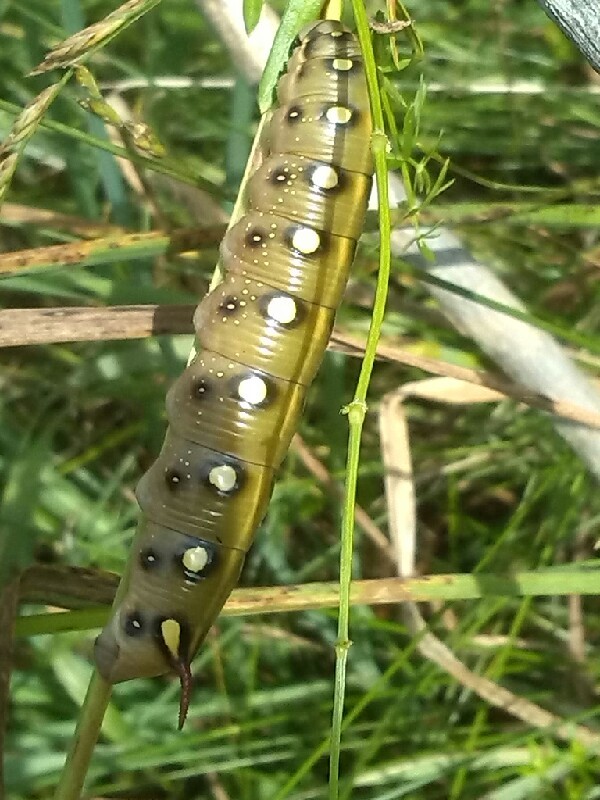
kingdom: Animalia
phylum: Arthropoda
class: Insecta
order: Lepidoptera
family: Sphingidae
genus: Hyles
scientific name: Hyles gallii
